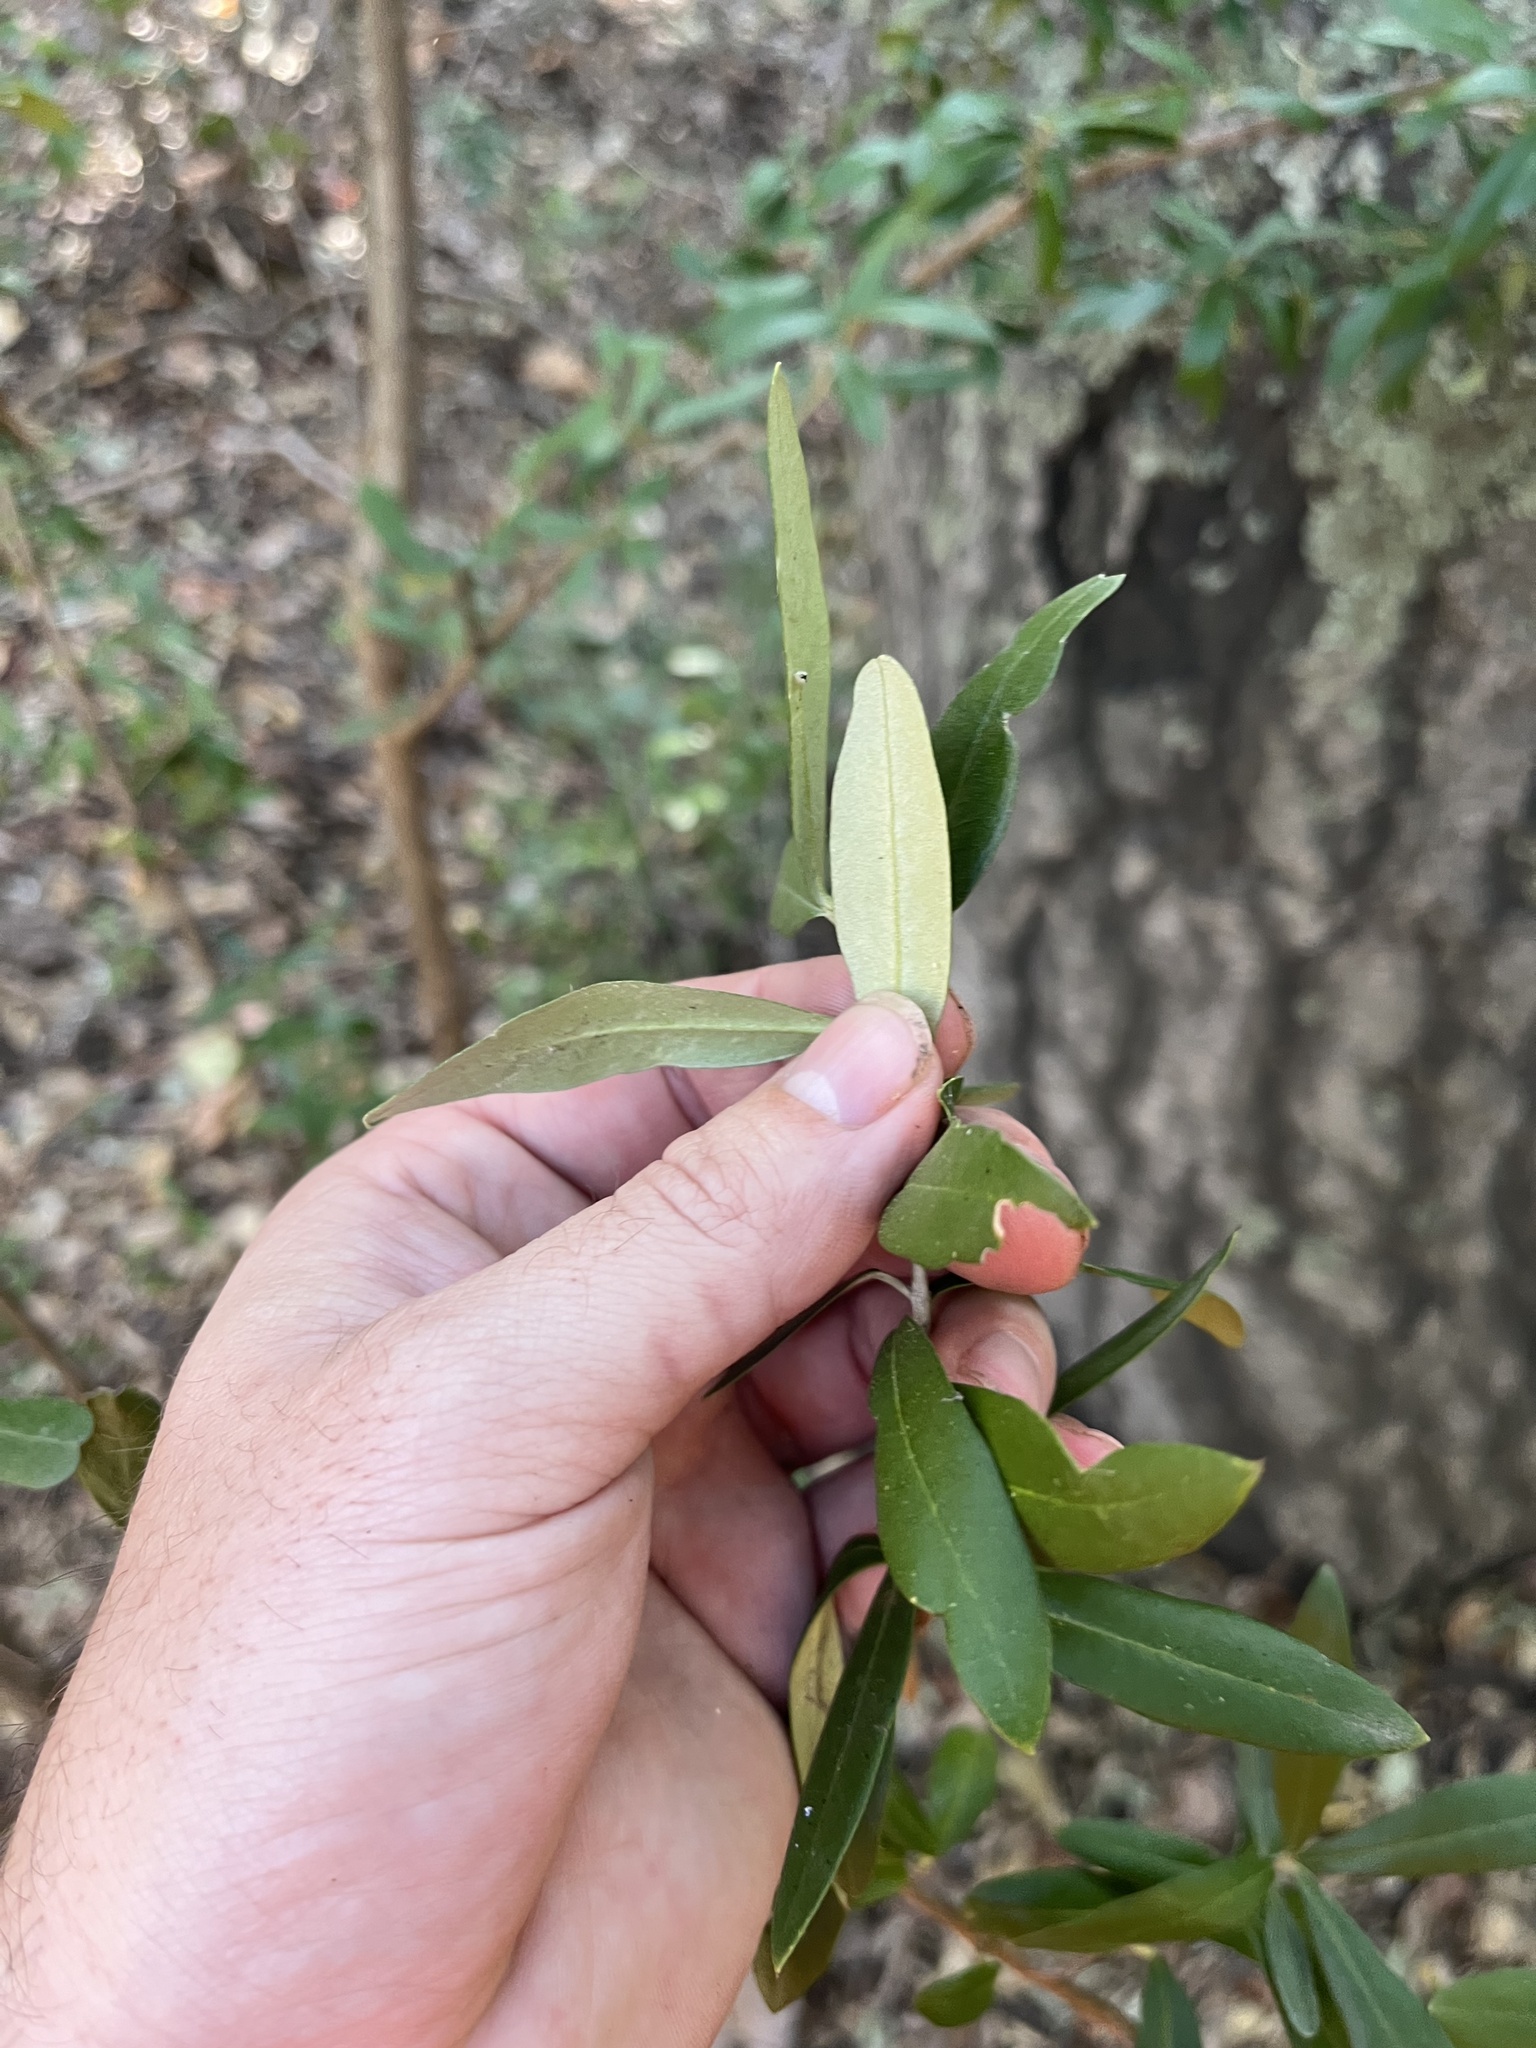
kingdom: Plantae
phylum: Tracheophyta
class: Magnoliopsida
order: Lamiales
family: Oleaceae
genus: Olea
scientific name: Olea europaea
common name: Olive
